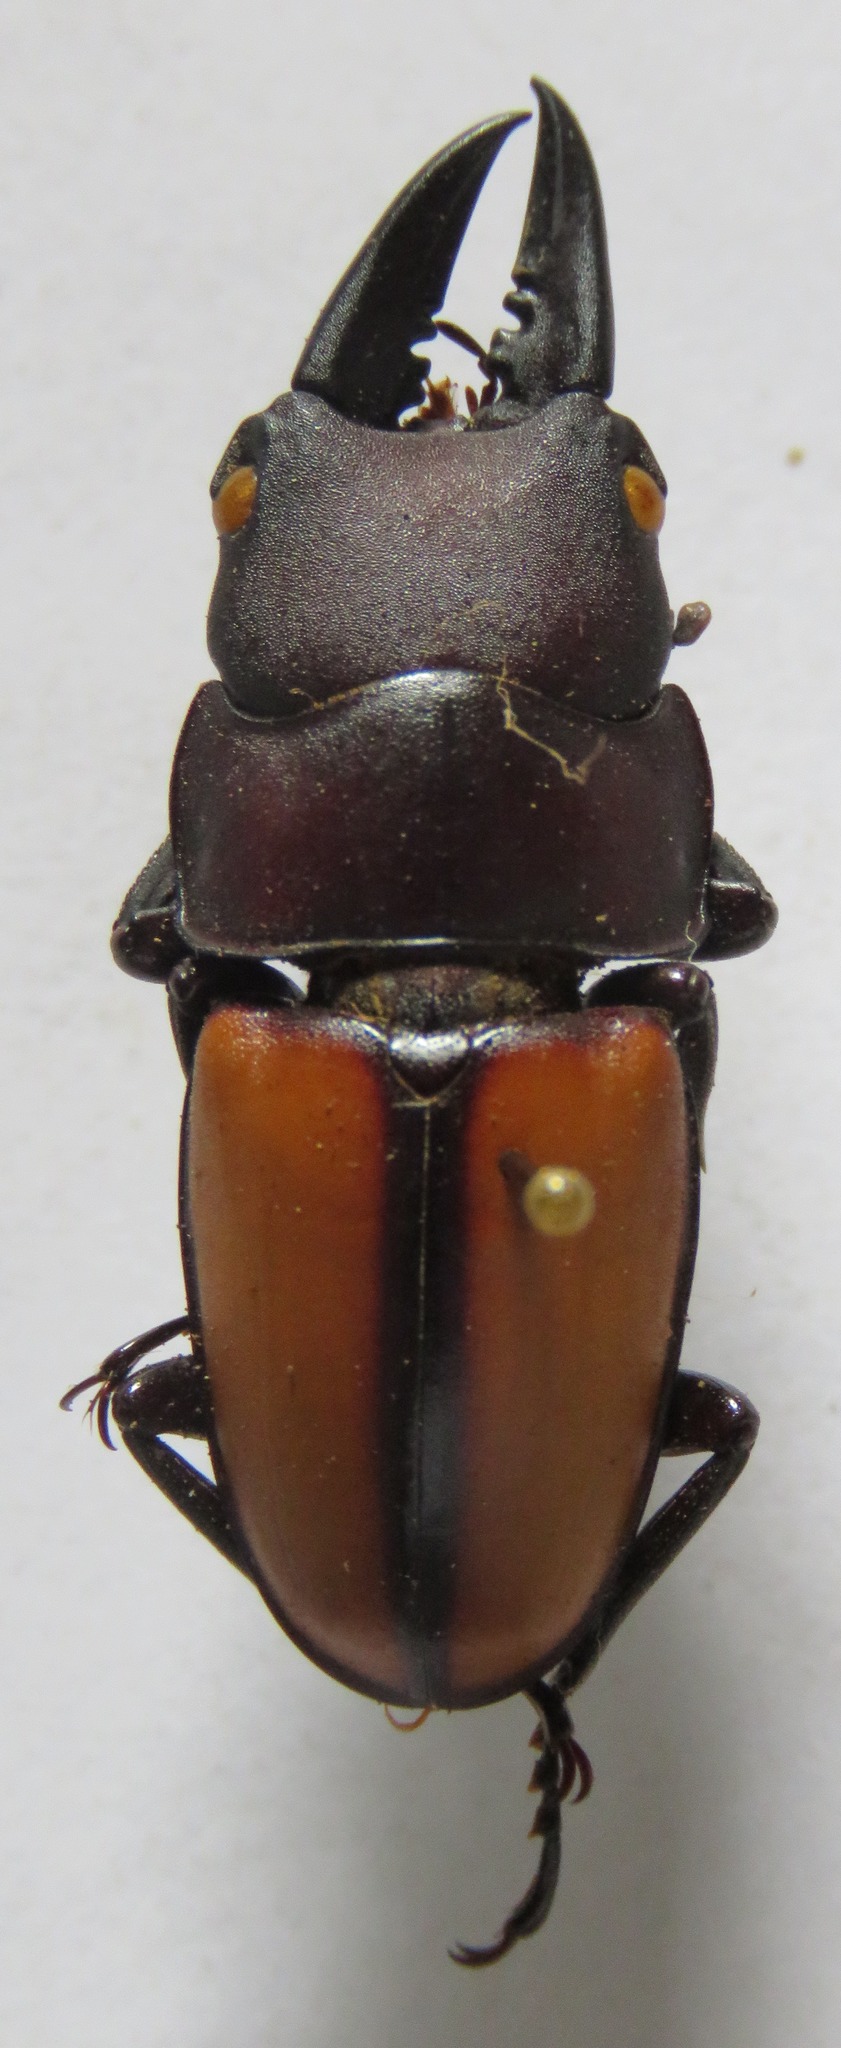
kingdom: Animalia
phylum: Arthropoda
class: Insecta
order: Coleoptera
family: Lucanidae
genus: Prosopocoilus
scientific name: Prosopocoilus doris
